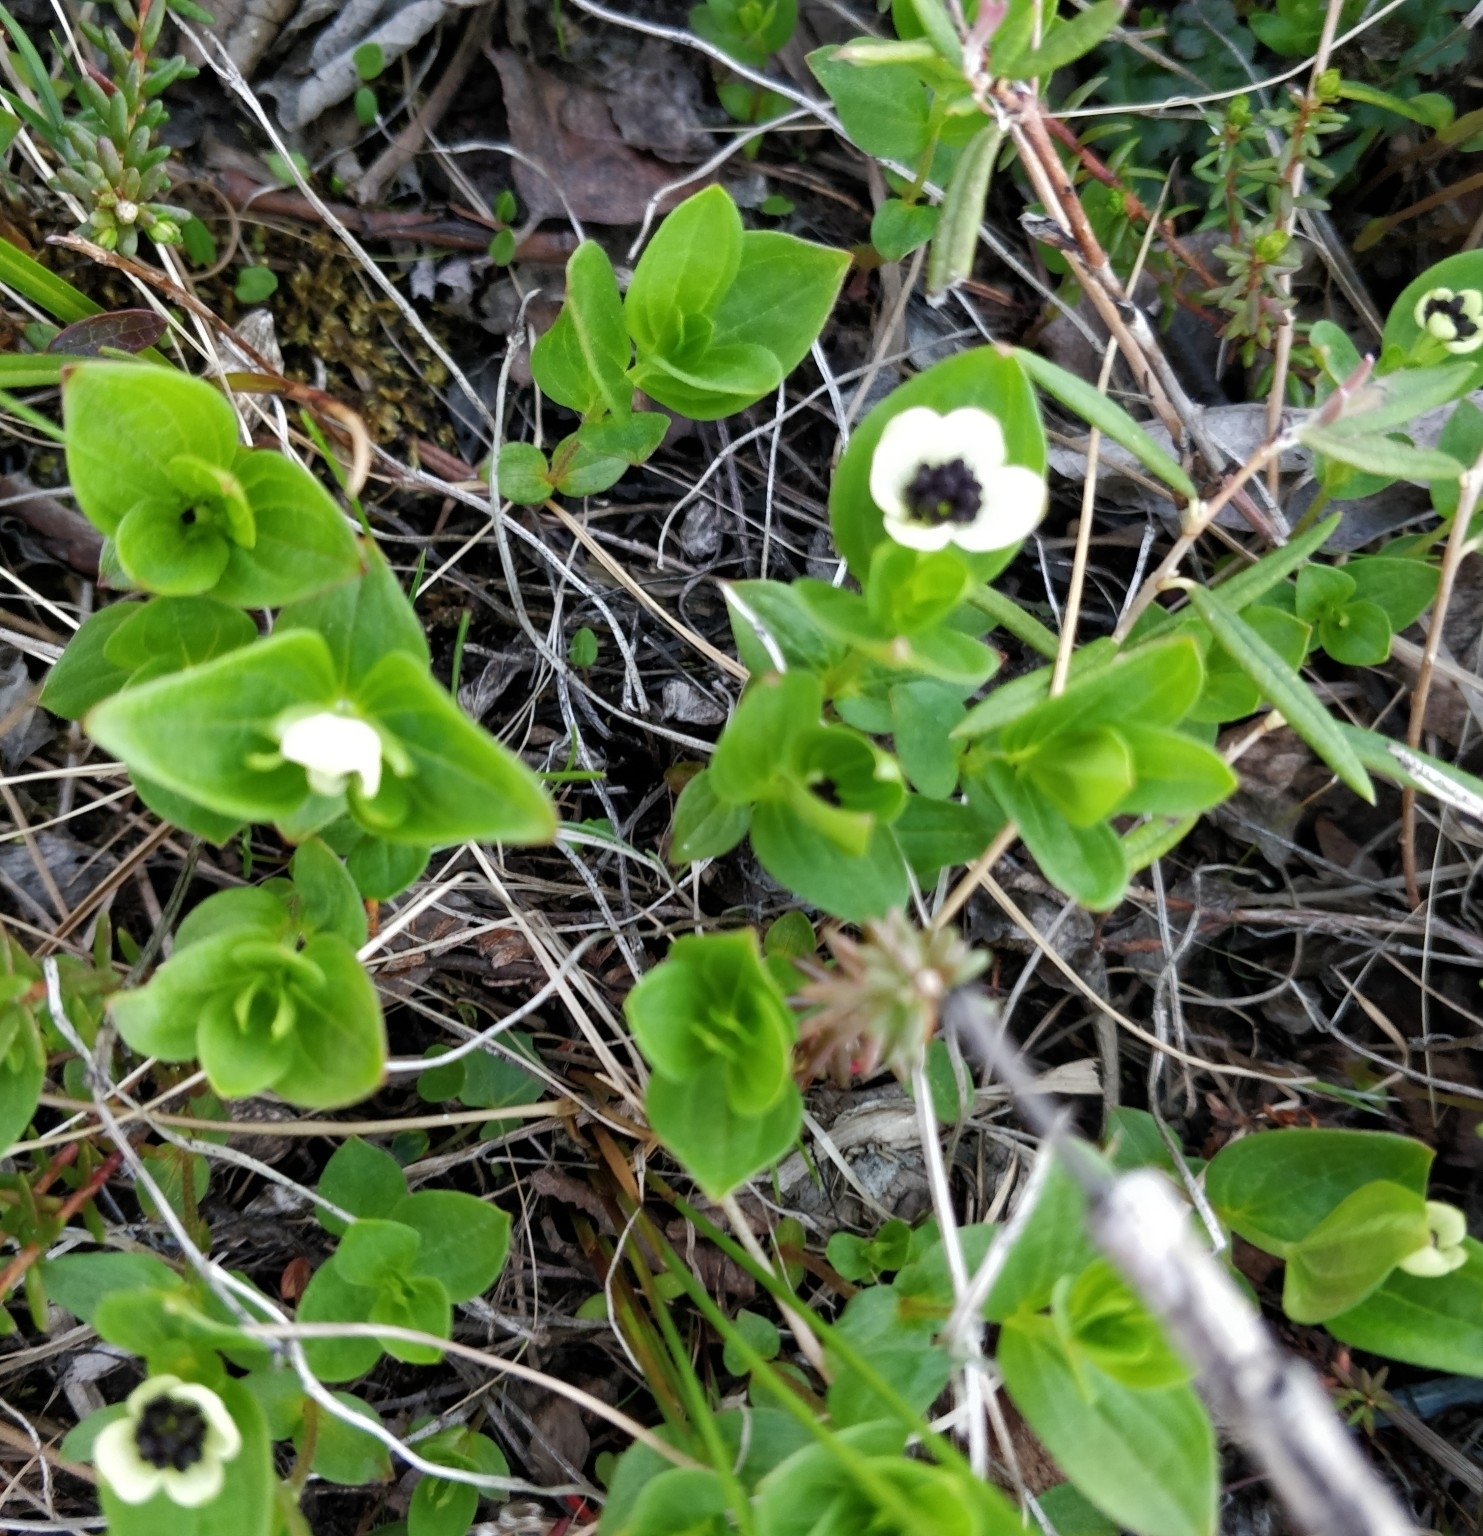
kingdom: Plantae
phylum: Tracheophyta
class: Magnoliopsida
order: Cornales
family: Cornaceae
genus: Cornus
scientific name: Cornus suecica
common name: Dwarf cornel
